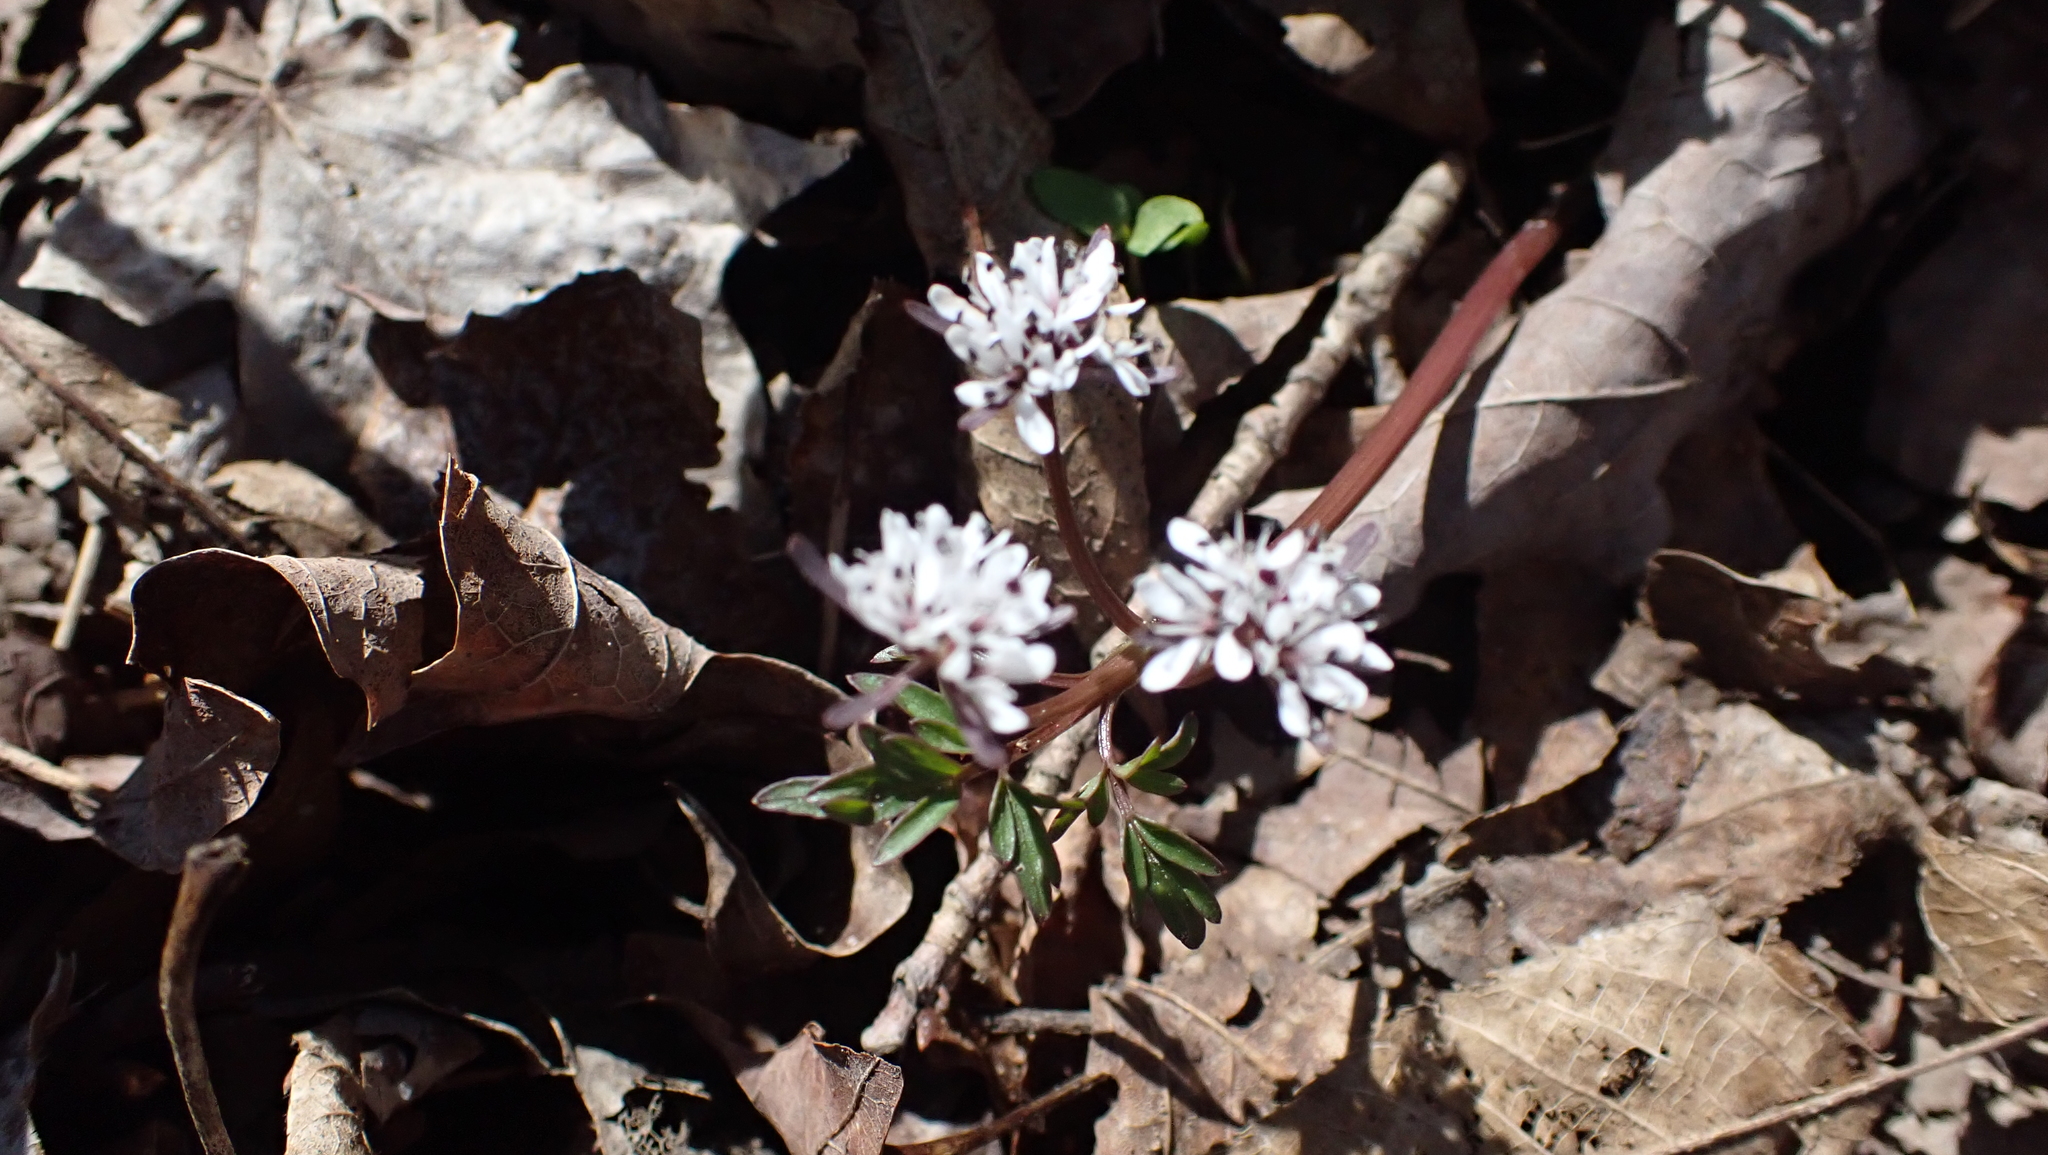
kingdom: Plantae
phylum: Tracheophyta
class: Magnoliopsida
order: Apiales
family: Apiaceae
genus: Erigenia
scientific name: Erigenia bulbosa
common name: Pepper-and-salt
